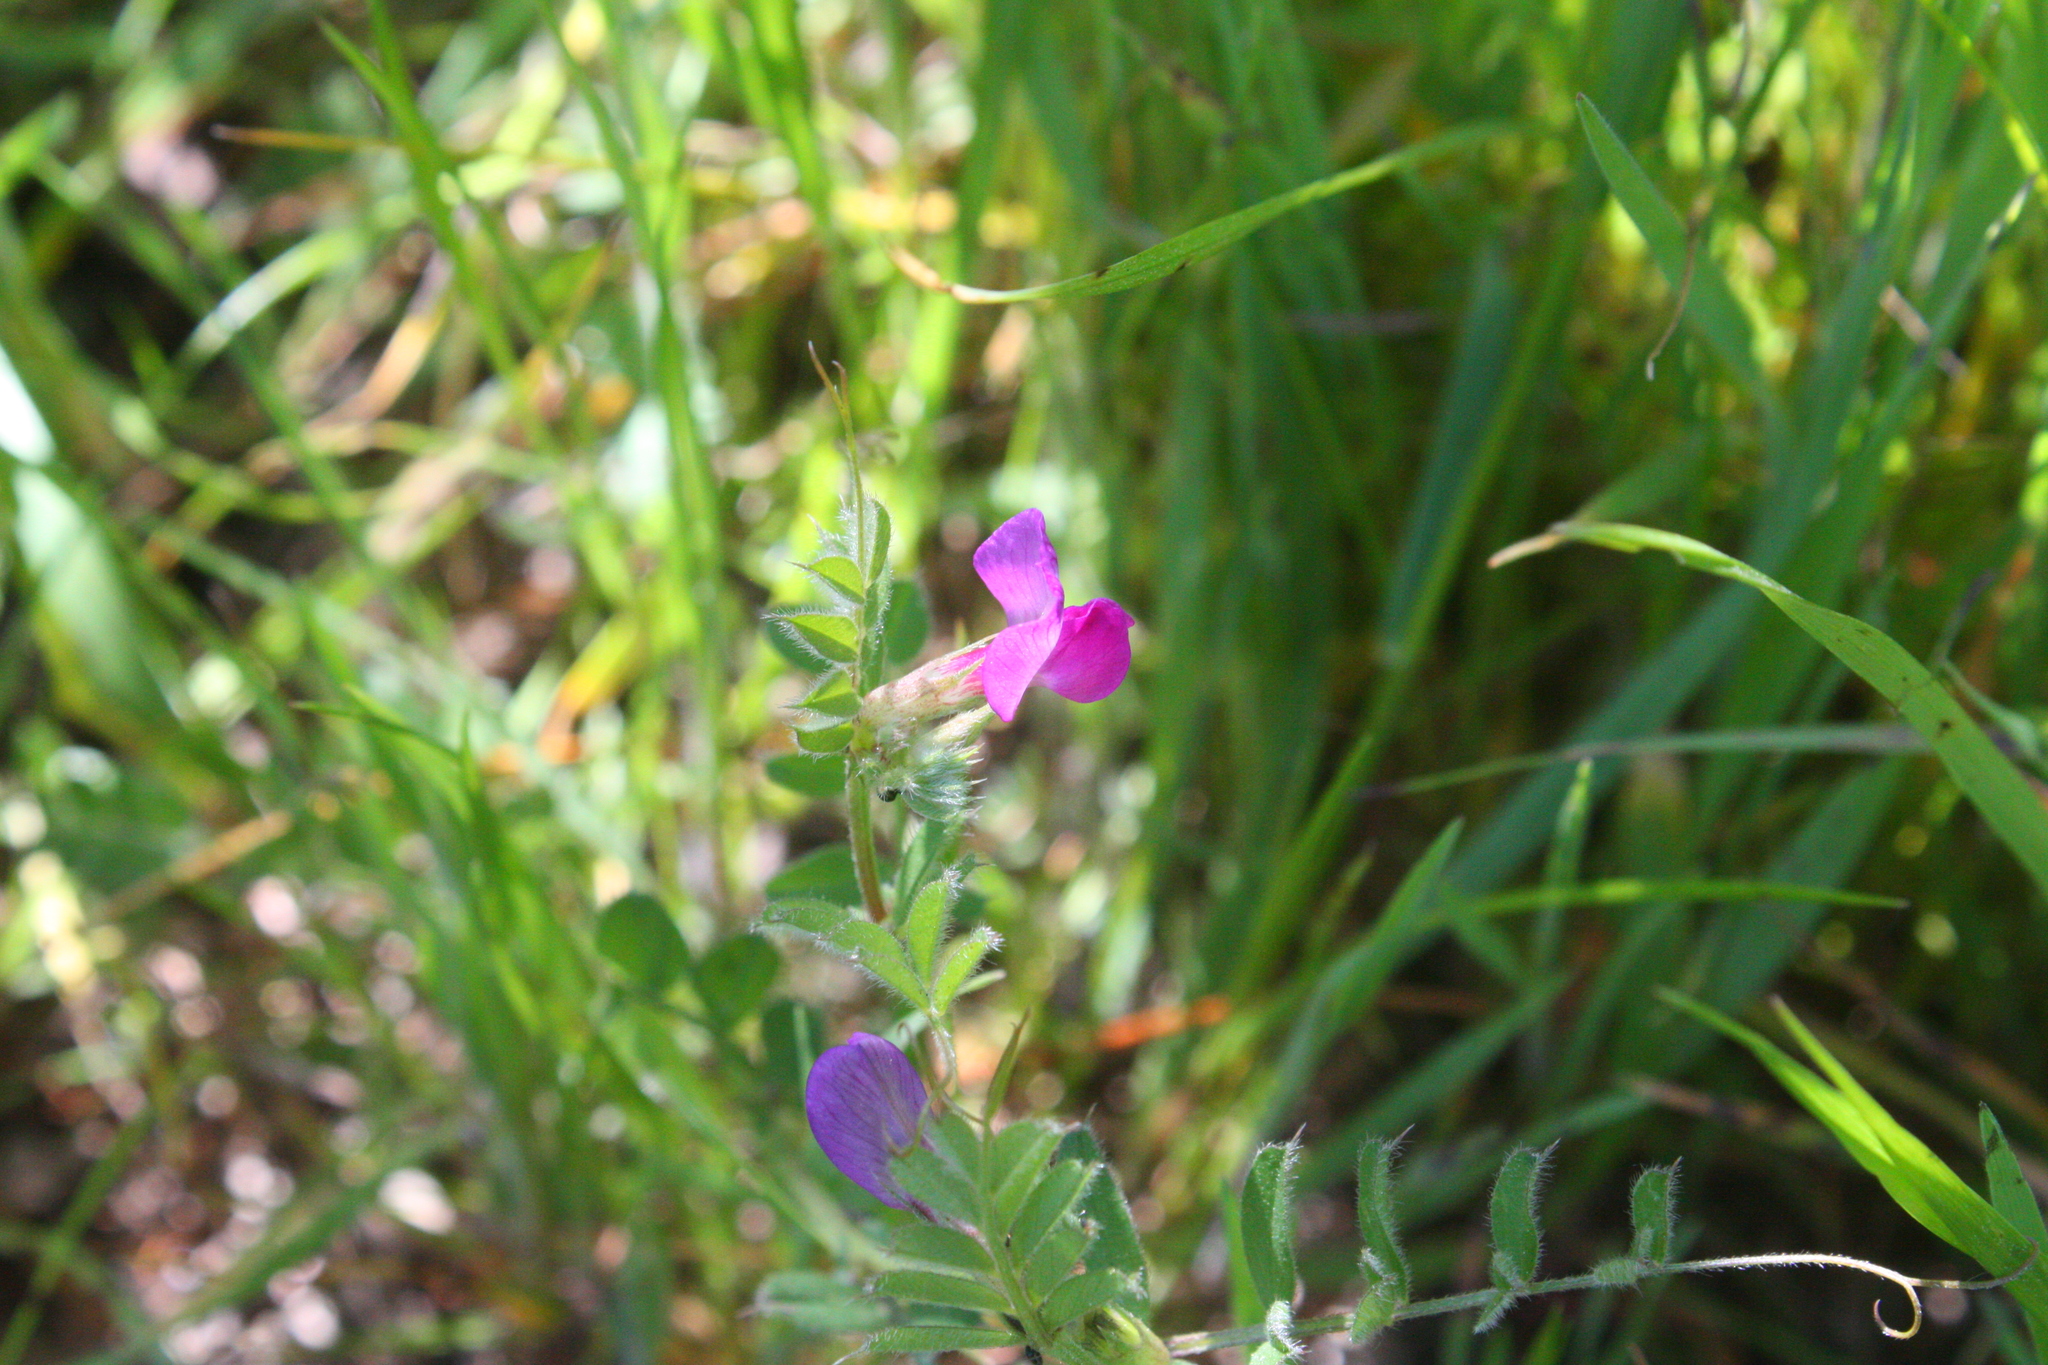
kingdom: Plantae
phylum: Tracheophyta
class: Magnoliopsida
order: Fabales
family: Fabaceae
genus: Vicia
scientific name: Vicia sativa
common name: Garden vetch
